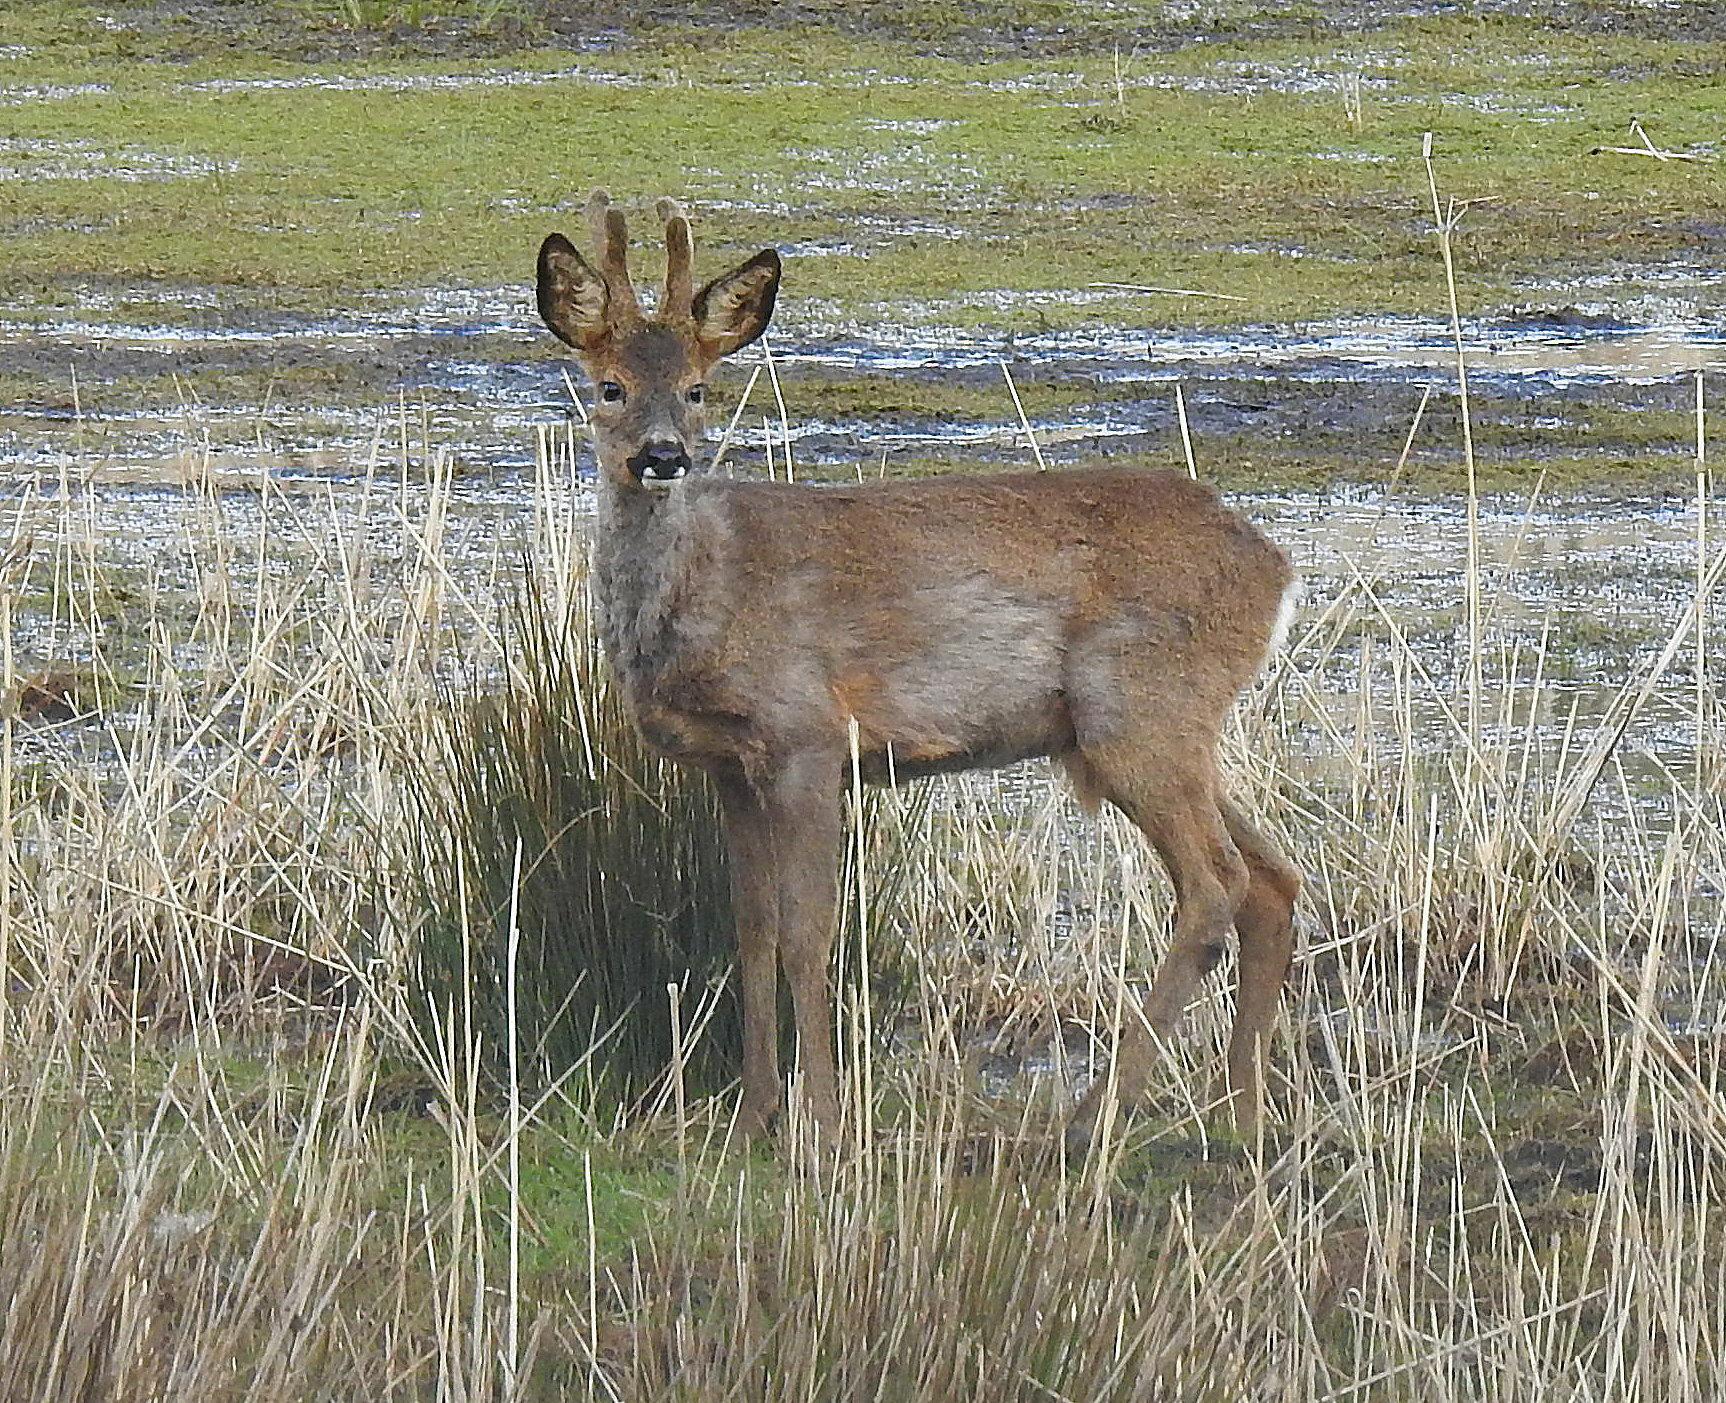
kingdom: Animalia
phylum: Chordata
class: Mammalia
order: Artiodactyla
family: Cervidae
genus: Capreolus
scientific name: Capreolus capreolus
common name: Western roe deer
